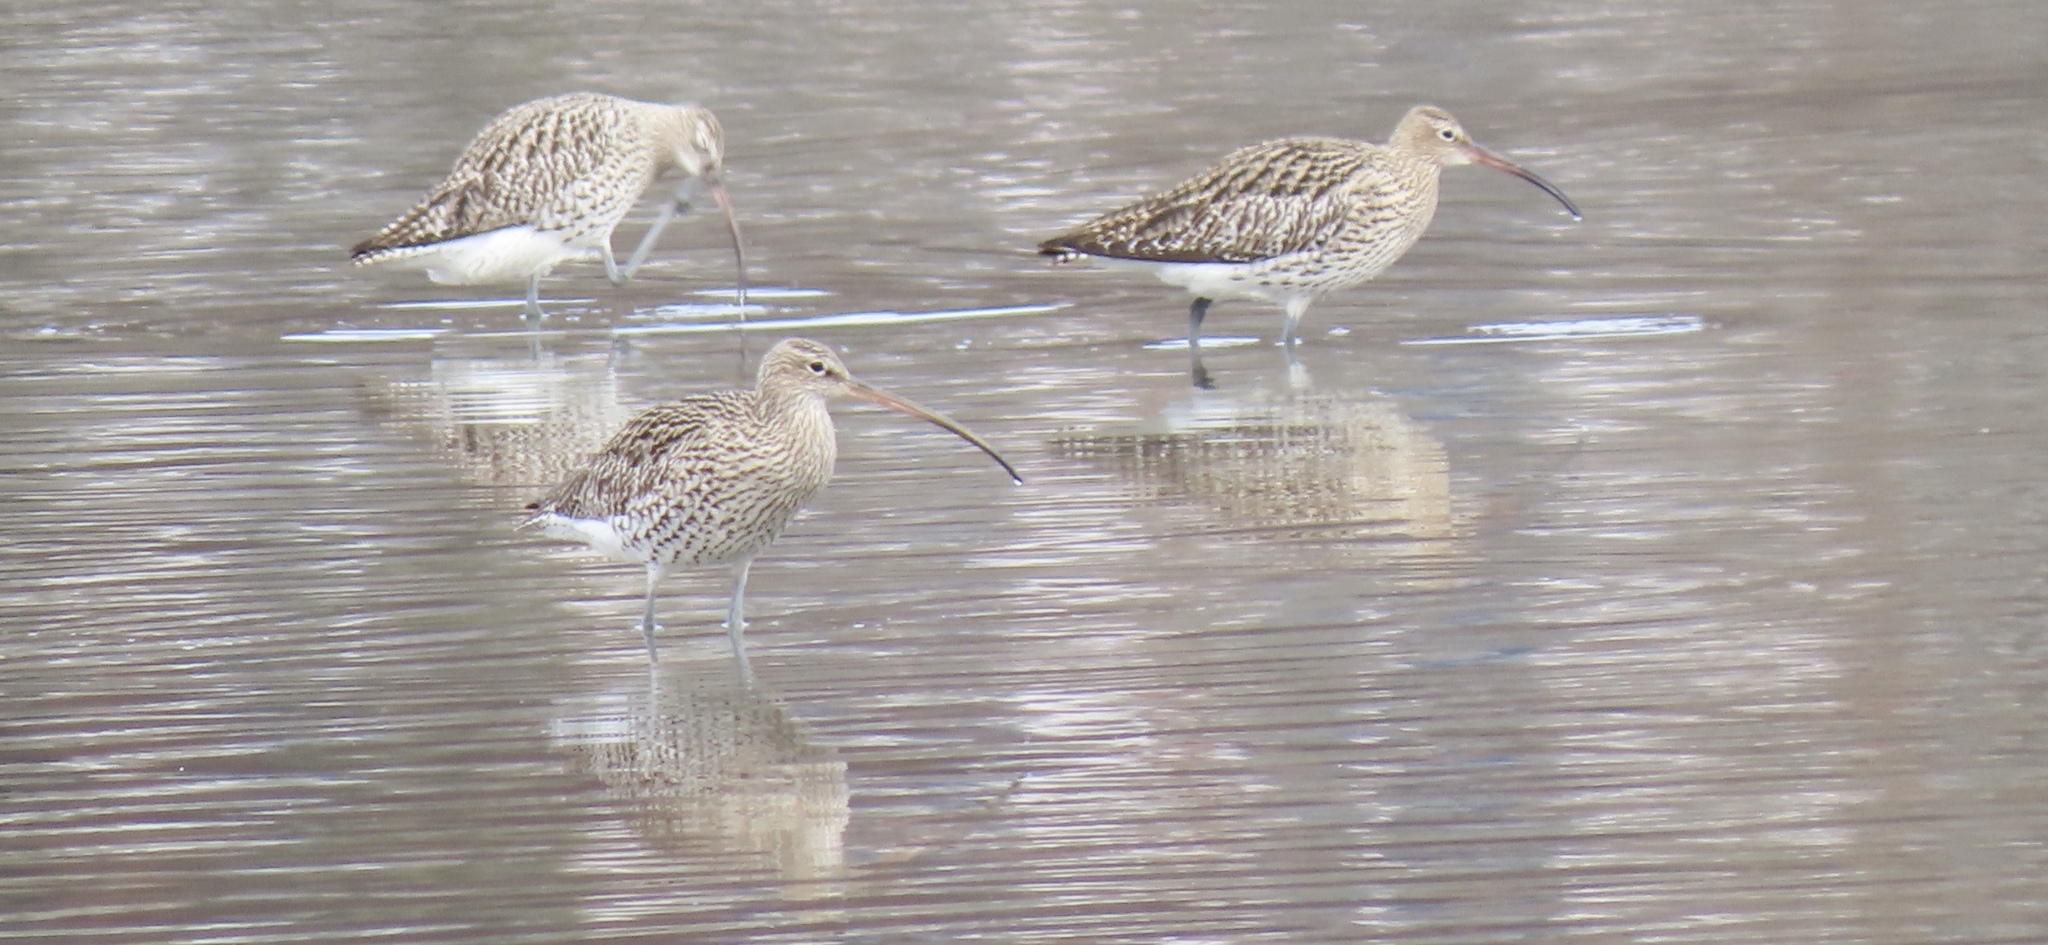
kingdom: Animalia
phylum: Chordata
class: Aves
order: Charadriiformes
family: Scolopacidae
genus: Numenius
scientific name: Numenius arquata
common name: Eurasian curlew
